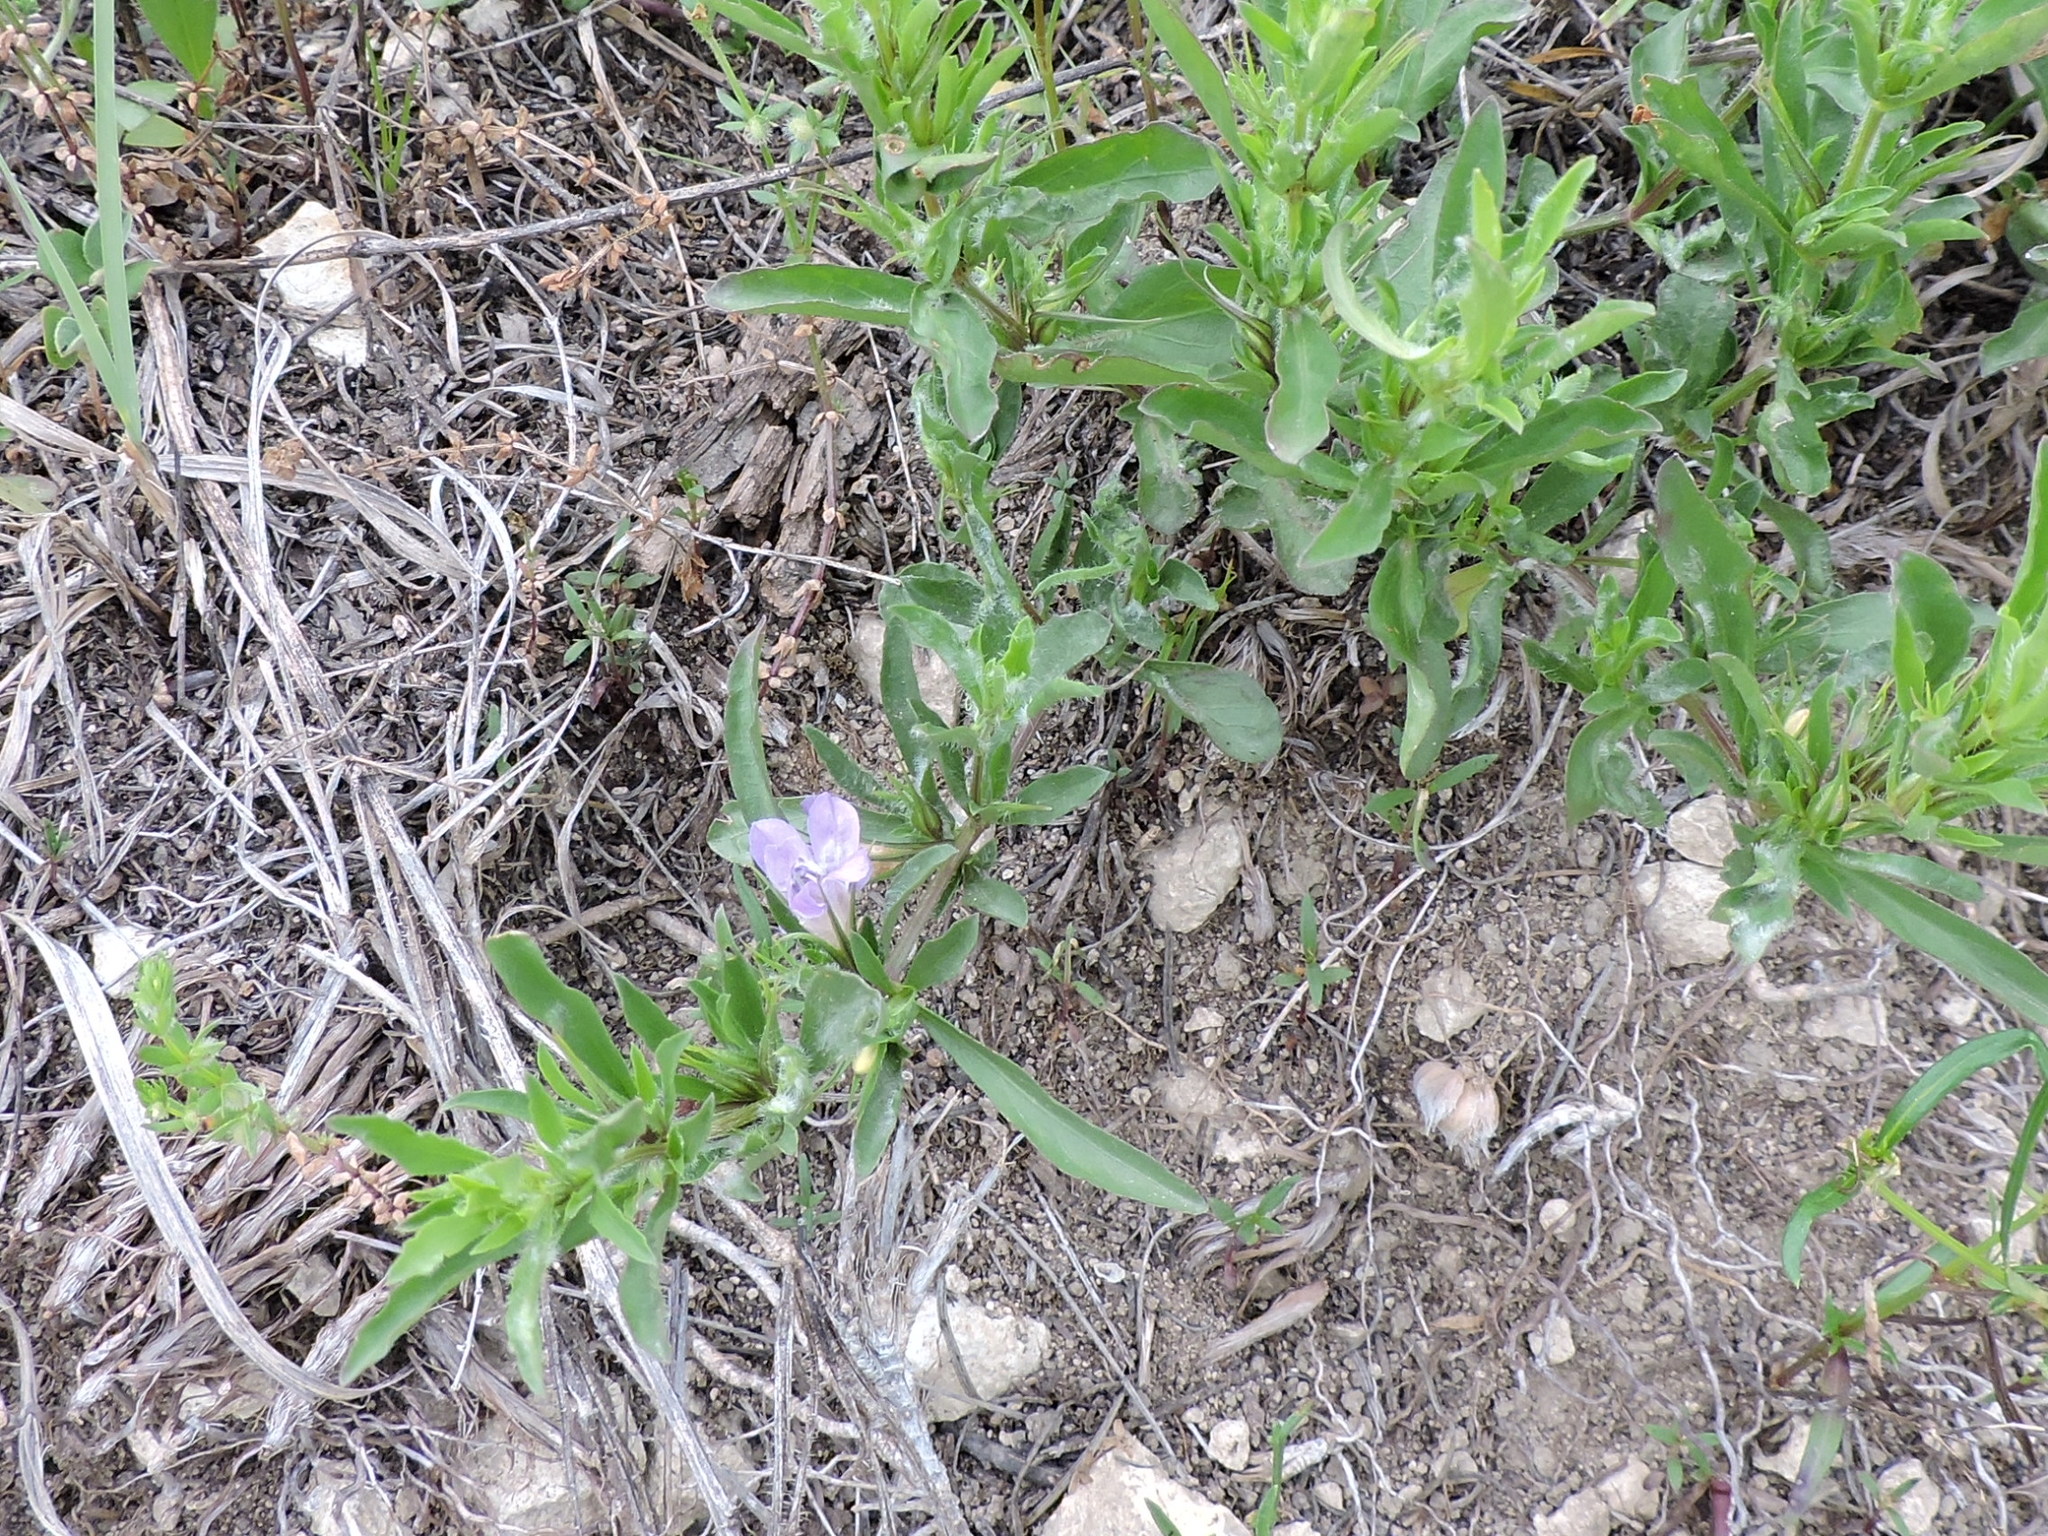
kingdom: Plantae
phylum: Tracheophyta
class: Magnoliopsida
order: Lamiales
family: Acanthaceae
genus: Dyschoriste
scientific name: Dyschoriste linearis
